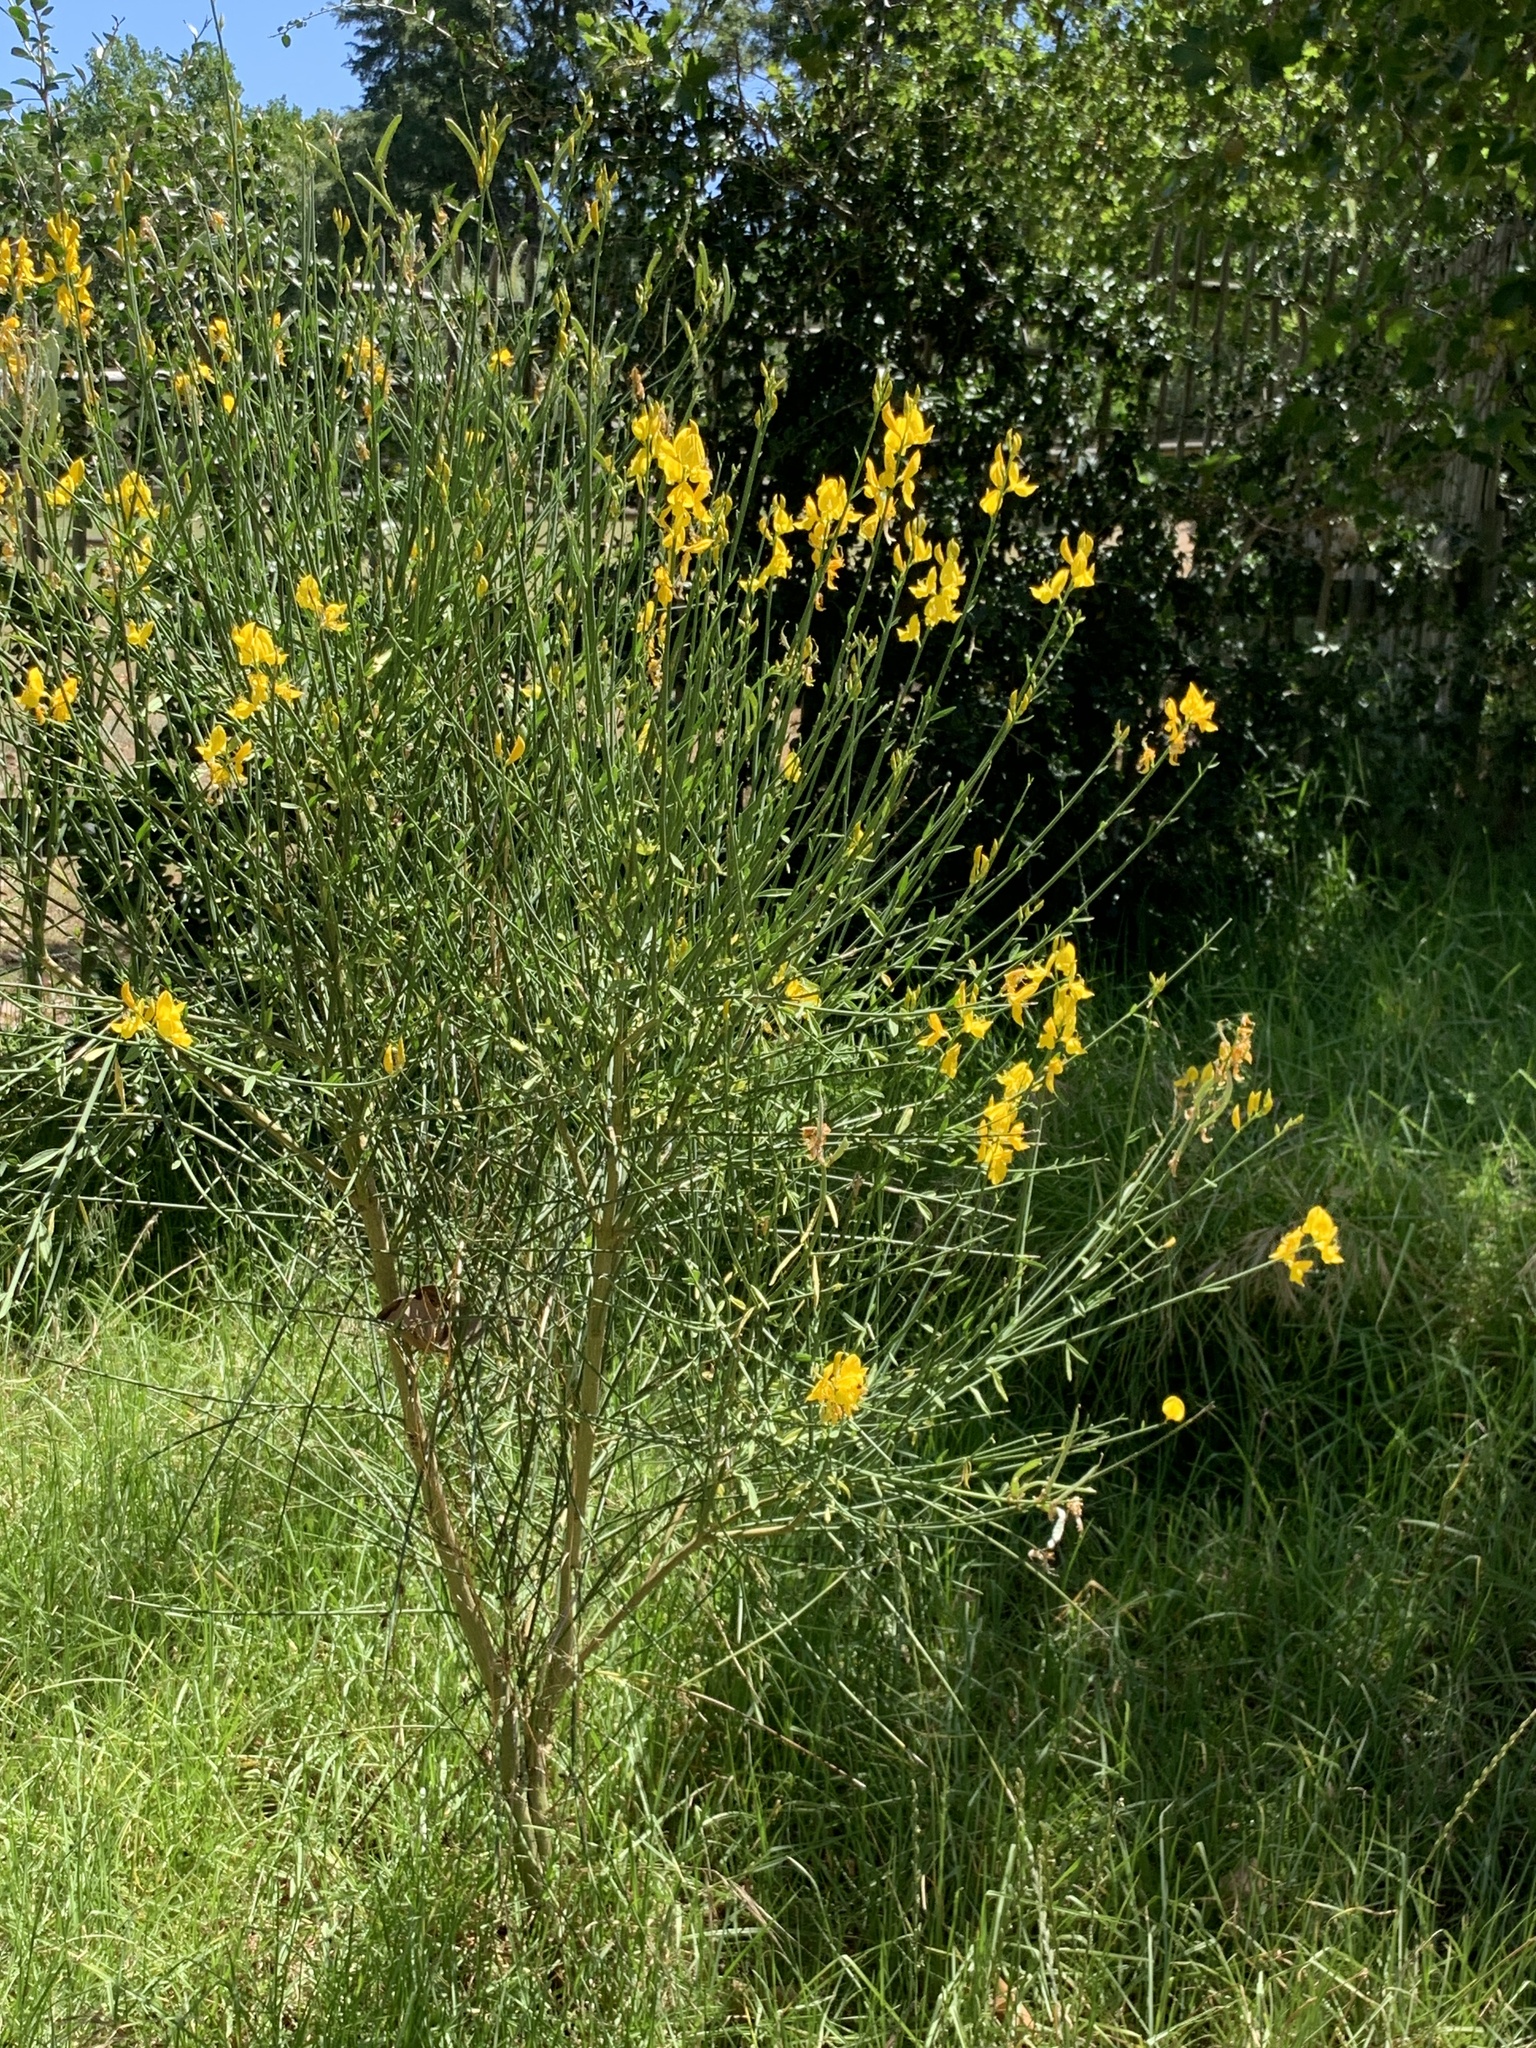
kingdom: Plantae
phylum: Tracheophyta
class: Magnoliopsida
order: Fabales
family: Fabaceae
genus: Spartium
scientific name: Spartium junceum
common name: Spanish broom
